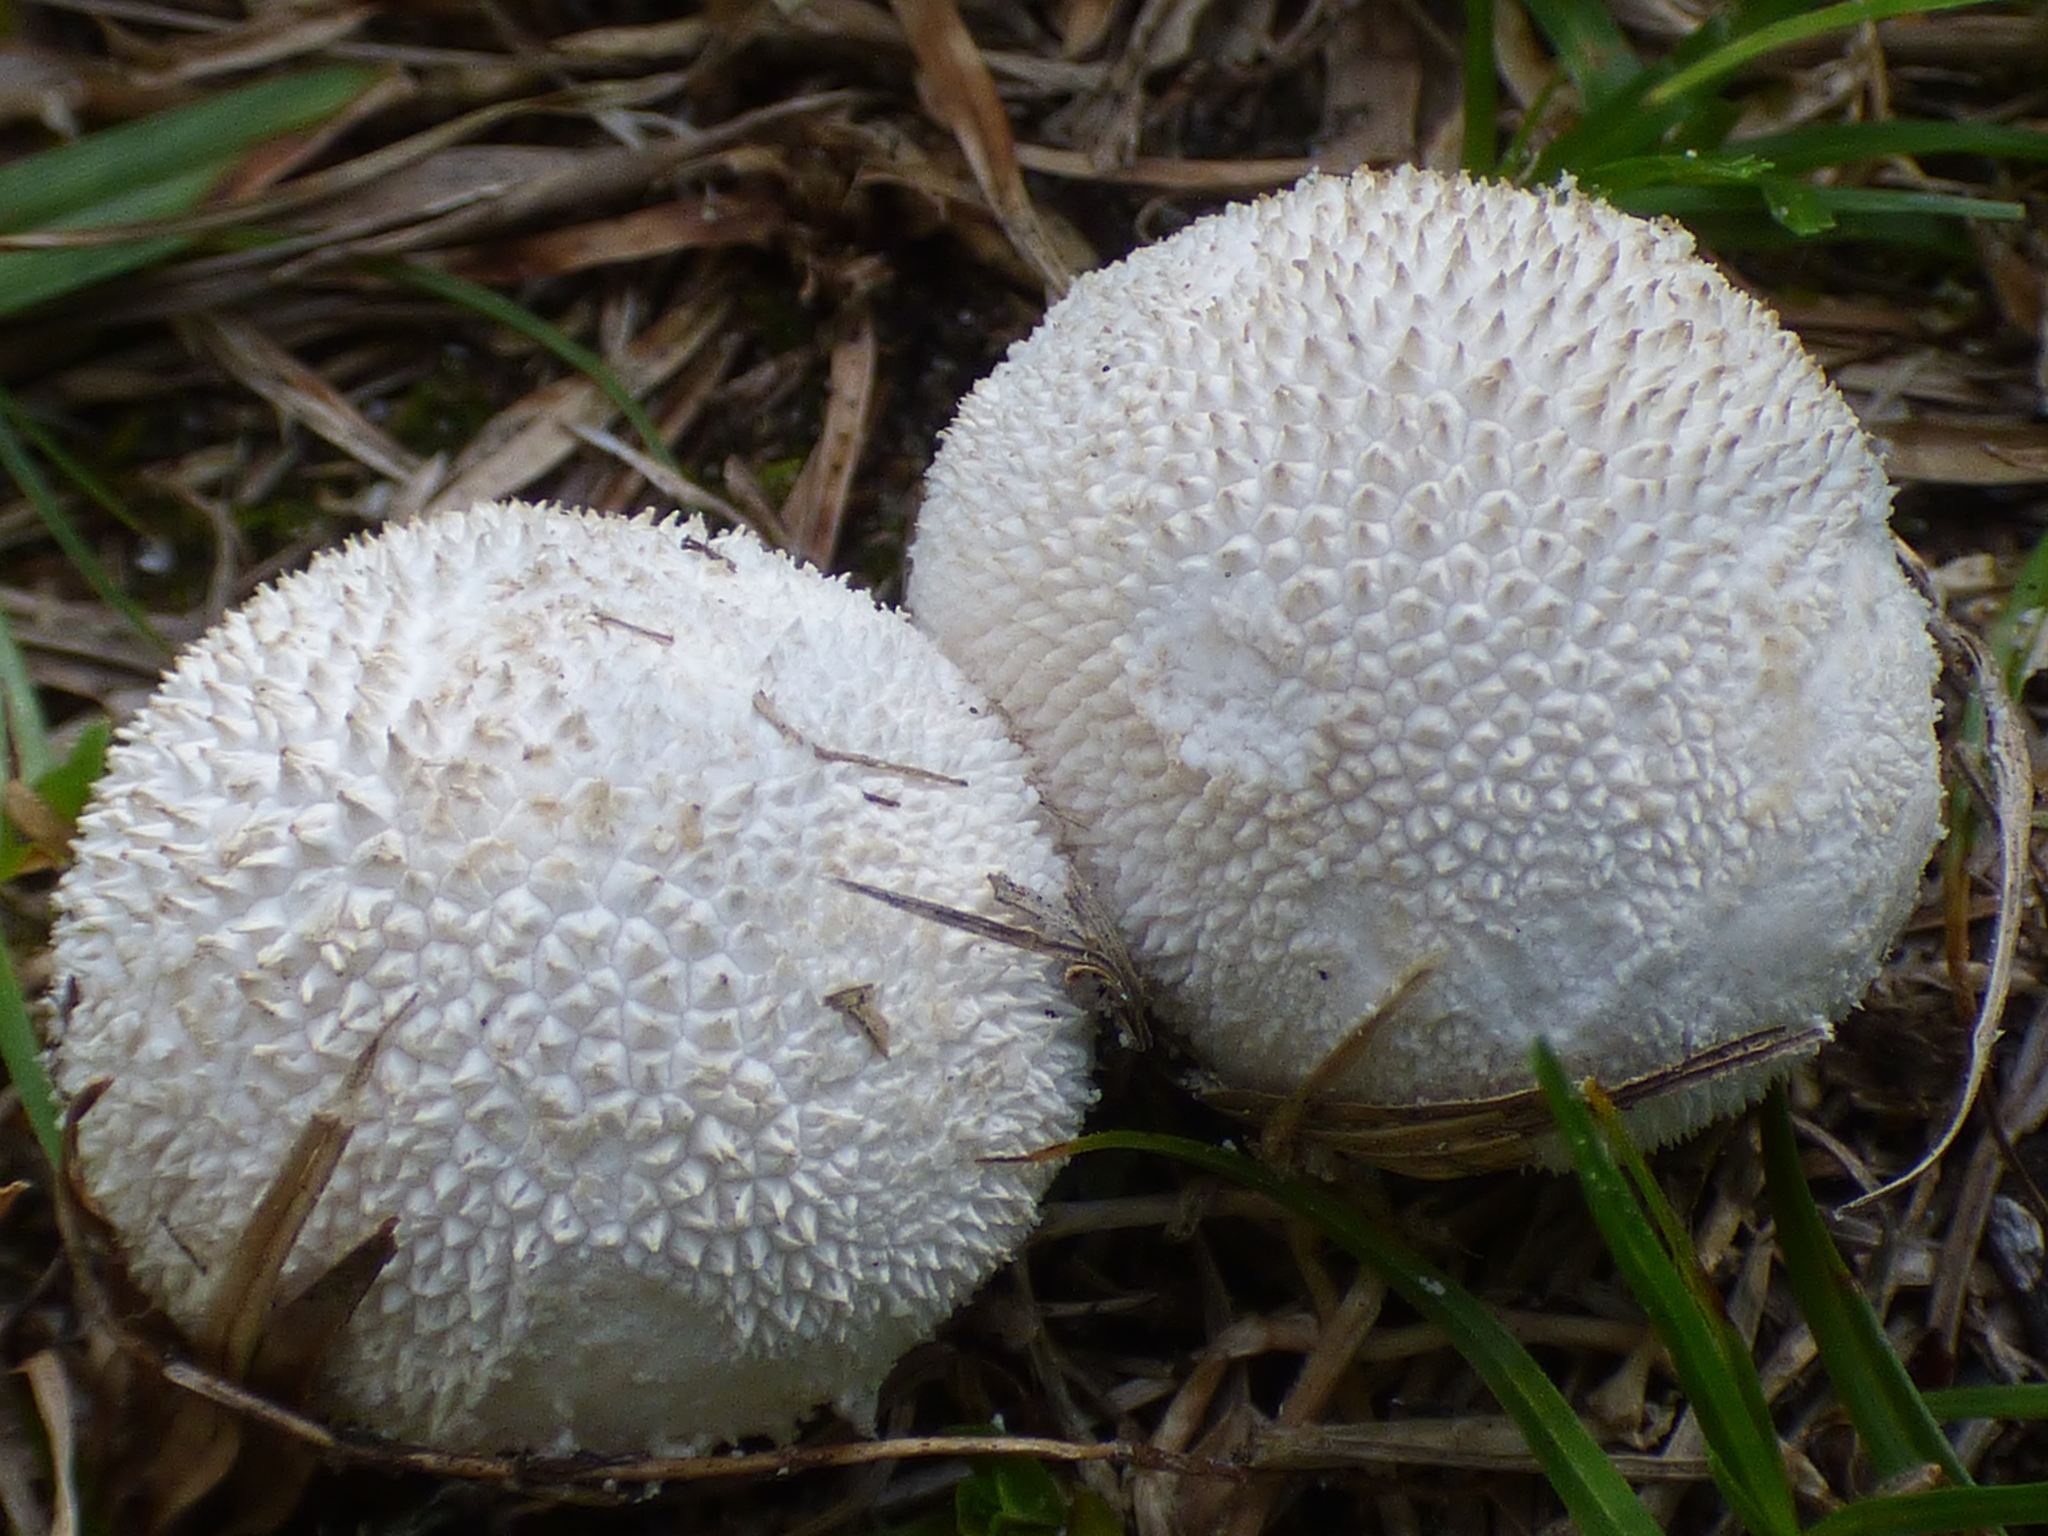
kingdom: Fungi
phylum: Basidiomycota
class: Agaricomycetes
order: Agaricales
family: Agaricaceae
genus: Lycoperdon
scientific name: Lycoperdon marginatum
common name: Peeling puffball
